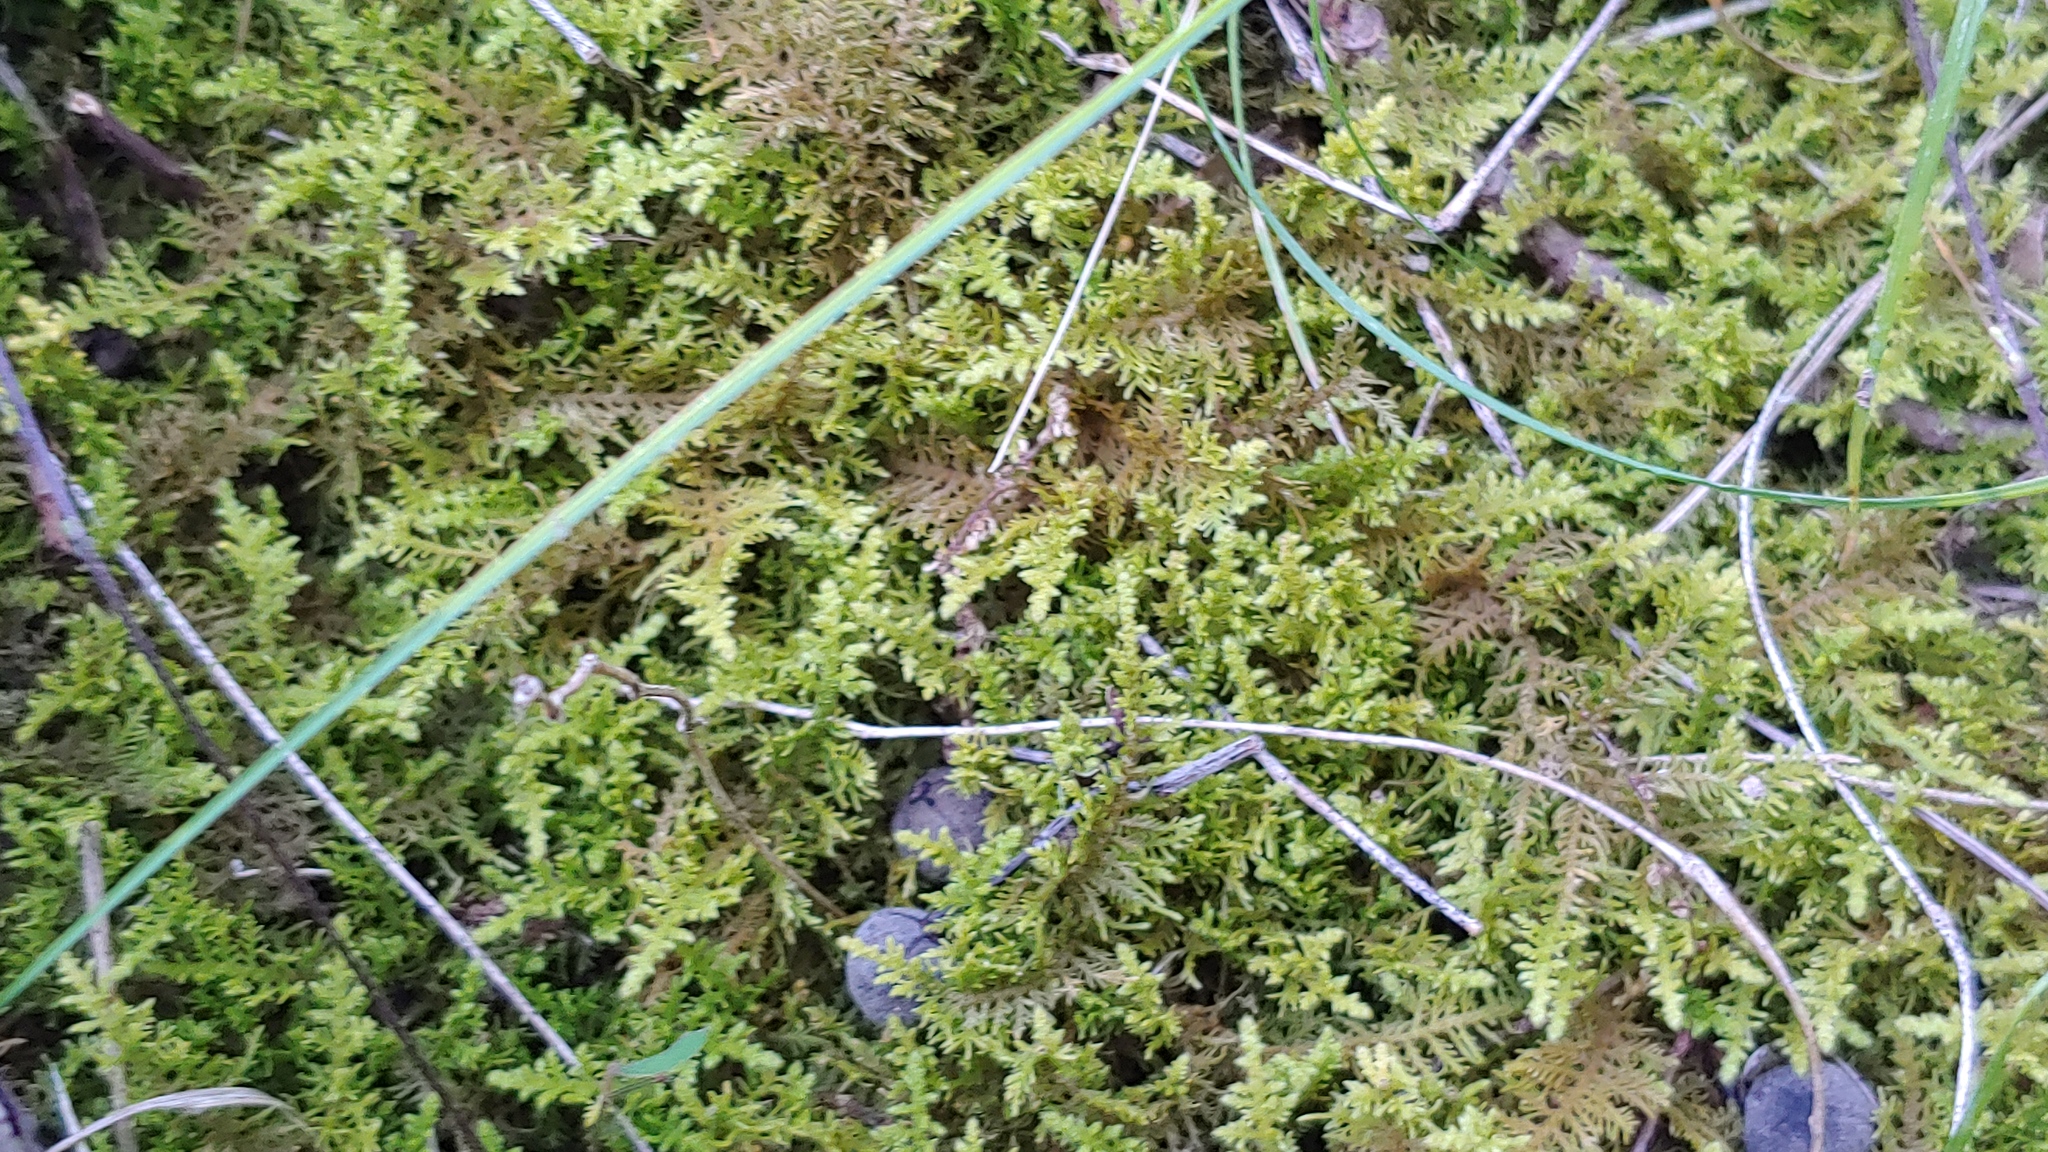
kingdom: Plantae
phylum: Bryophyta
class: Bryopsida
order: Hypnales
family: Thuidiaceae
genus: Thuidium
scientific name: Thuidium delicatulum
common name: Delicate fern moss
